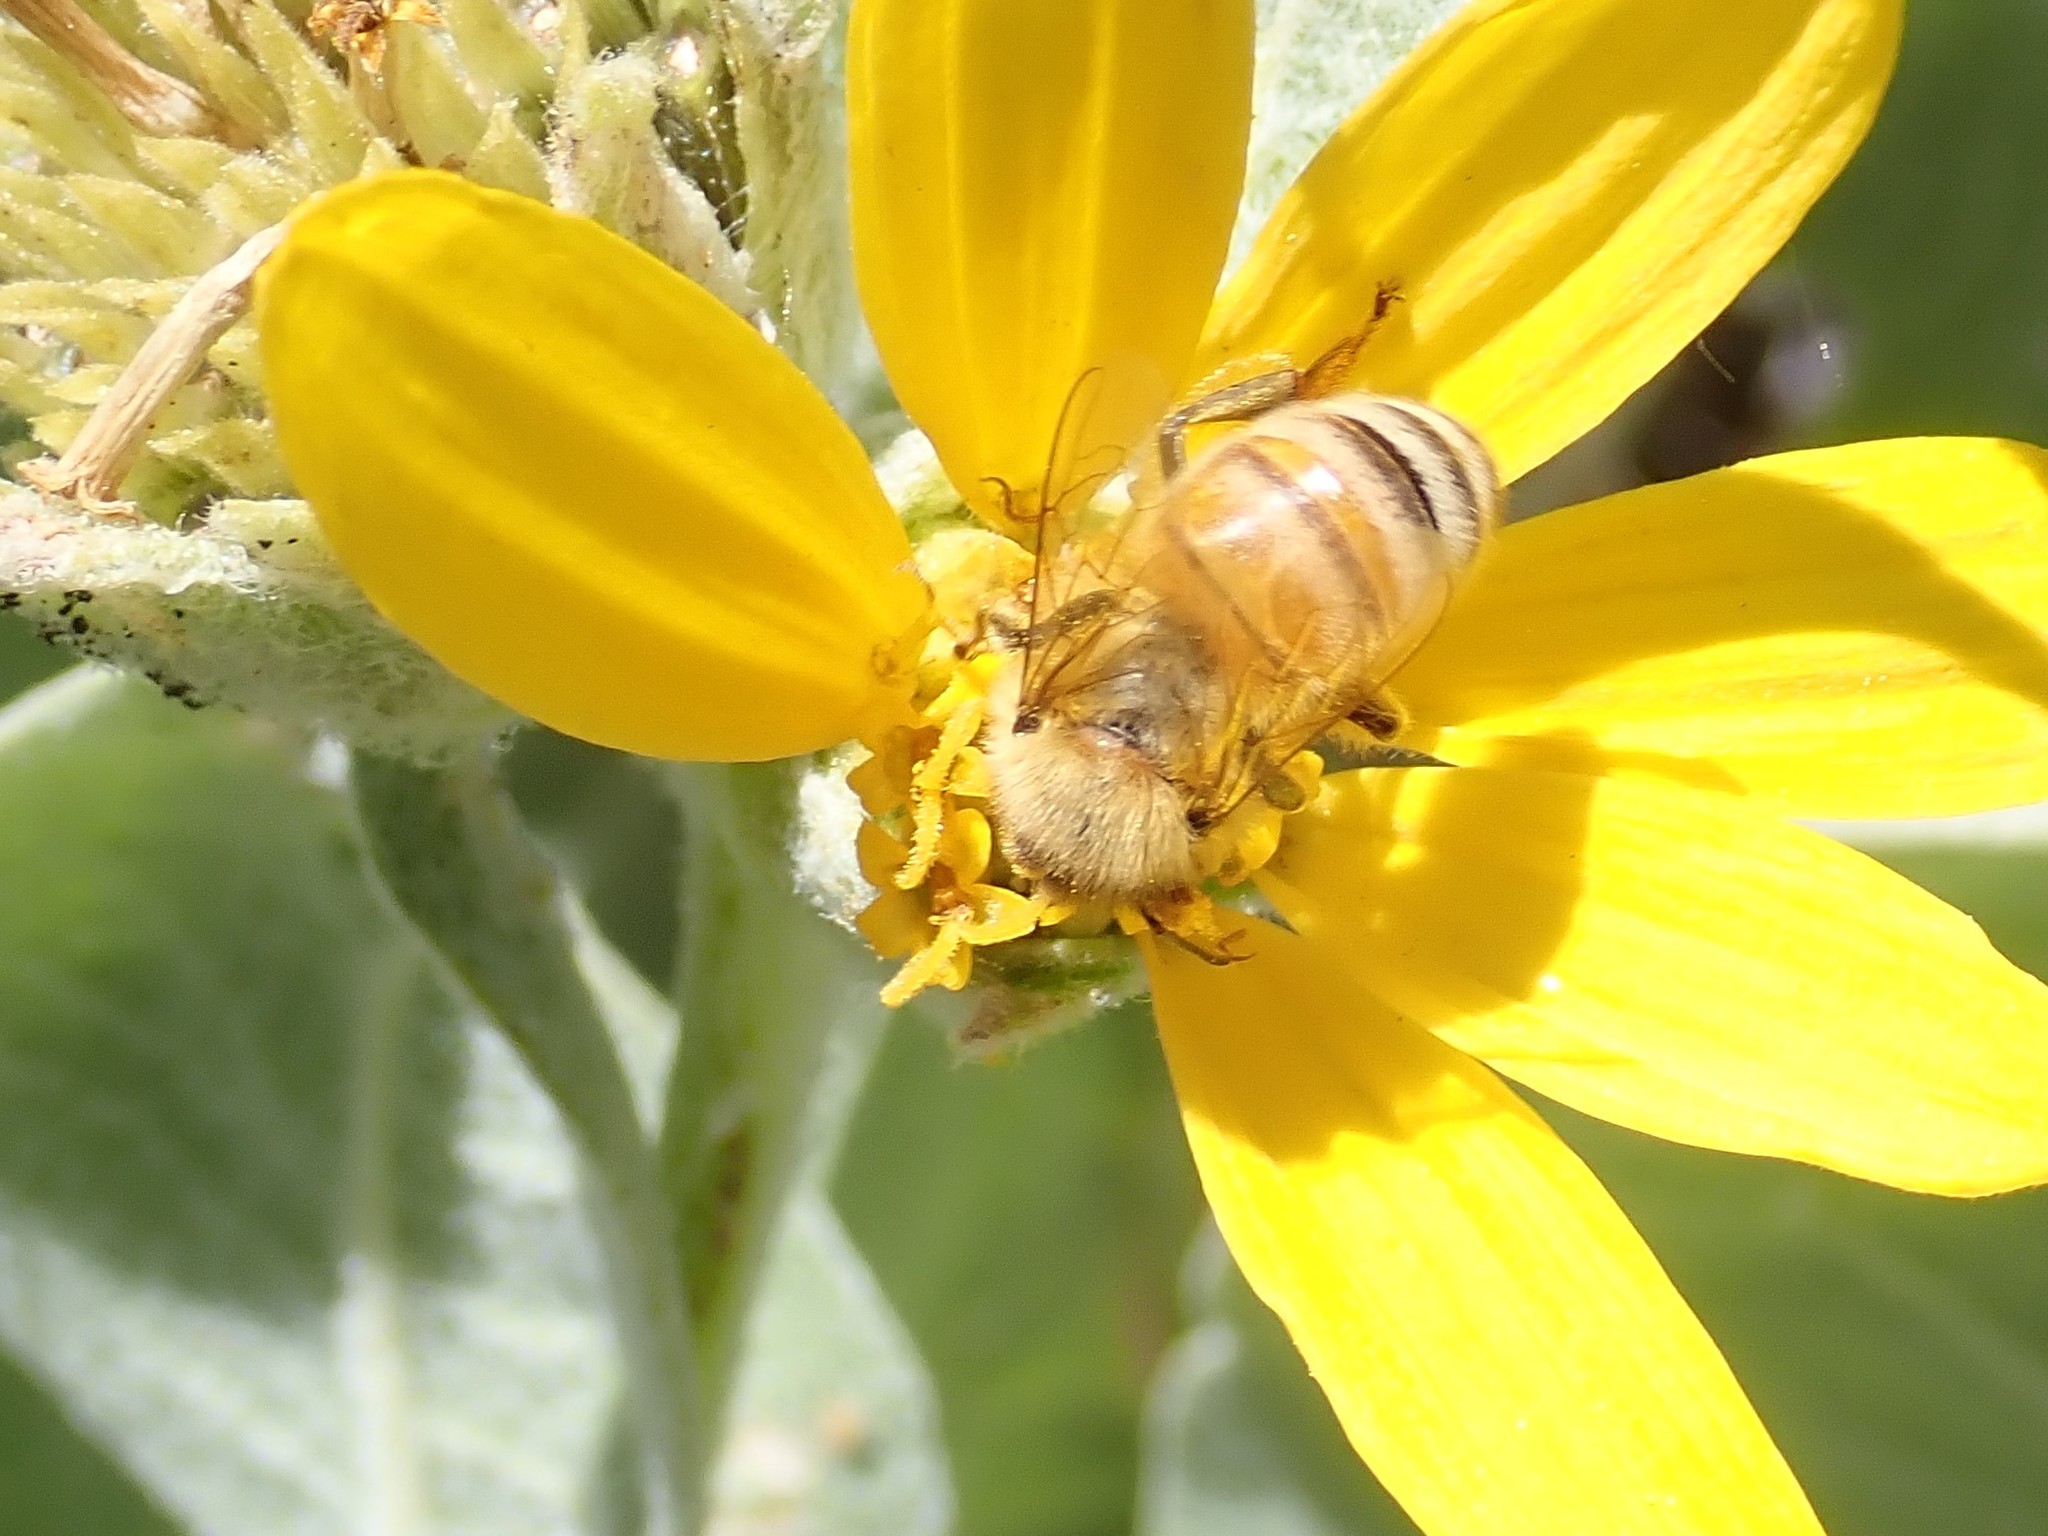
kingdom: Animalia
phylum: Arthropoda
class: Insecta
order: Hymenoptera
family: Apidae
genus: Apis
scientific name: Apis mellifera
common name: Honey bee
